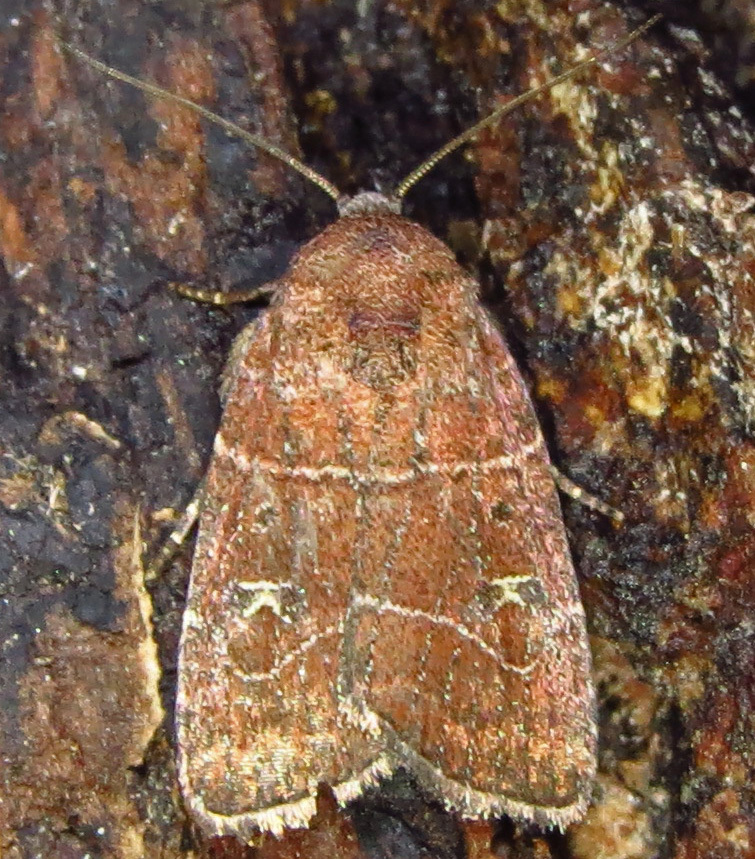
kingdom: Animalia
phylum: Arthropoda
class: Insecta
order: Lepidoptera
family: Noctuidae
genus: Elaphria
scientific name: Elaphria grata
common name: Grateful midget moth
